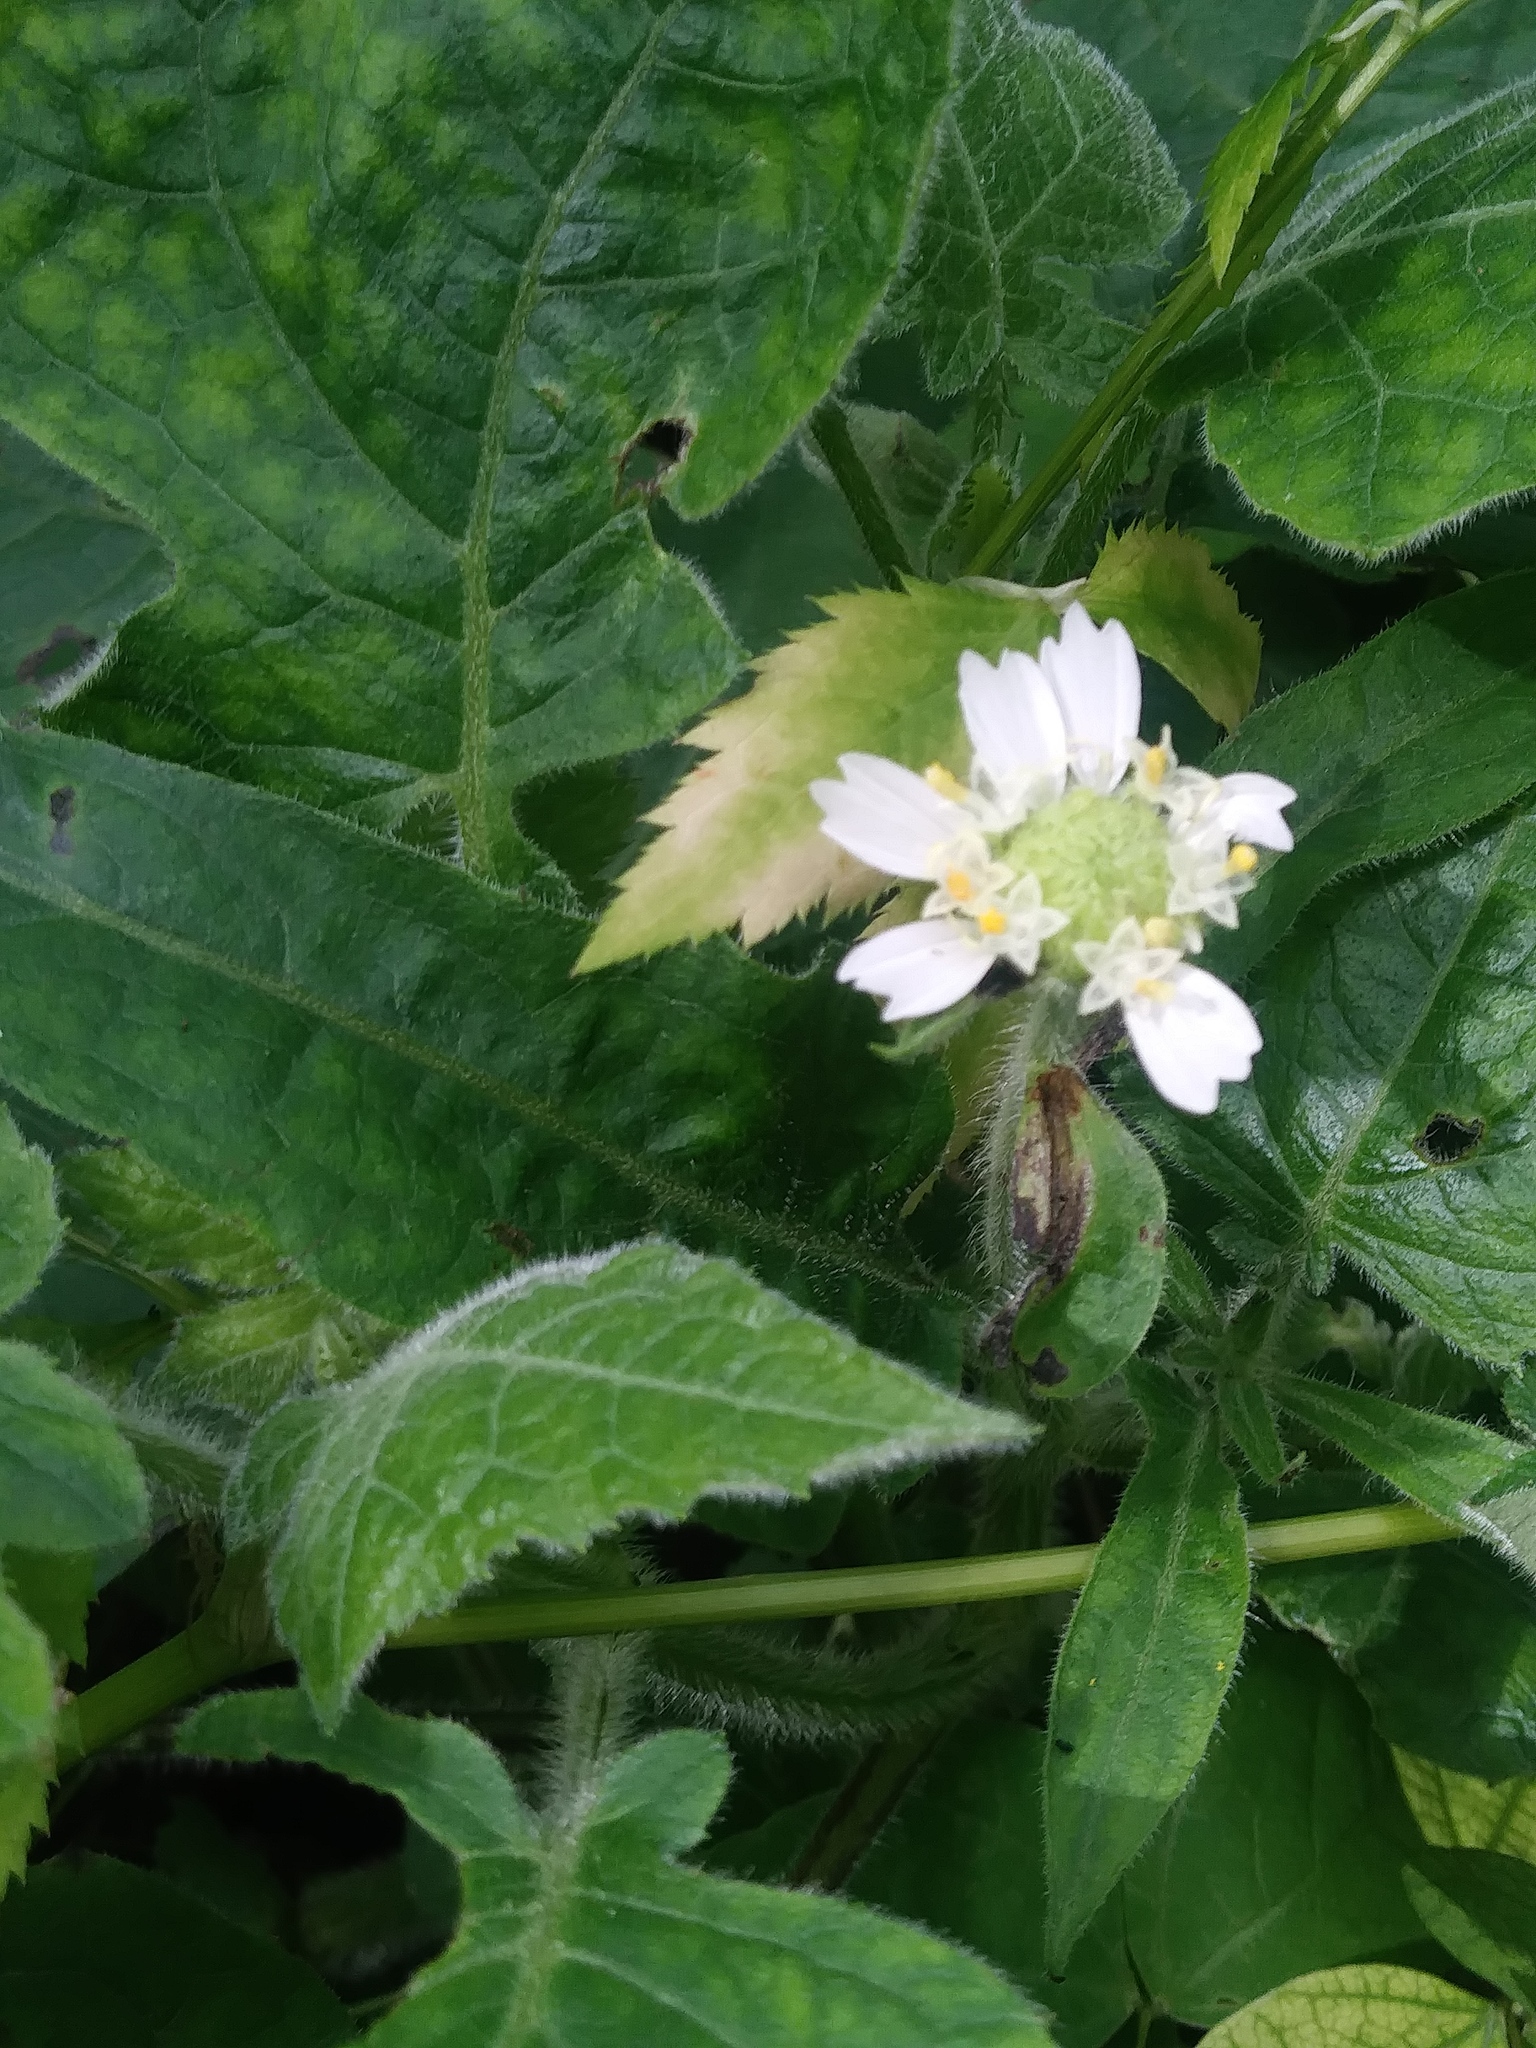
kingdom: Plantae
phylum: Tracheophyta
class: Magnoliopsida
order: Asterales
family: Asteraceae
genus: Polymnia
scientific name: Polymnia canadensis
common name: Pale-flowered leafcup
